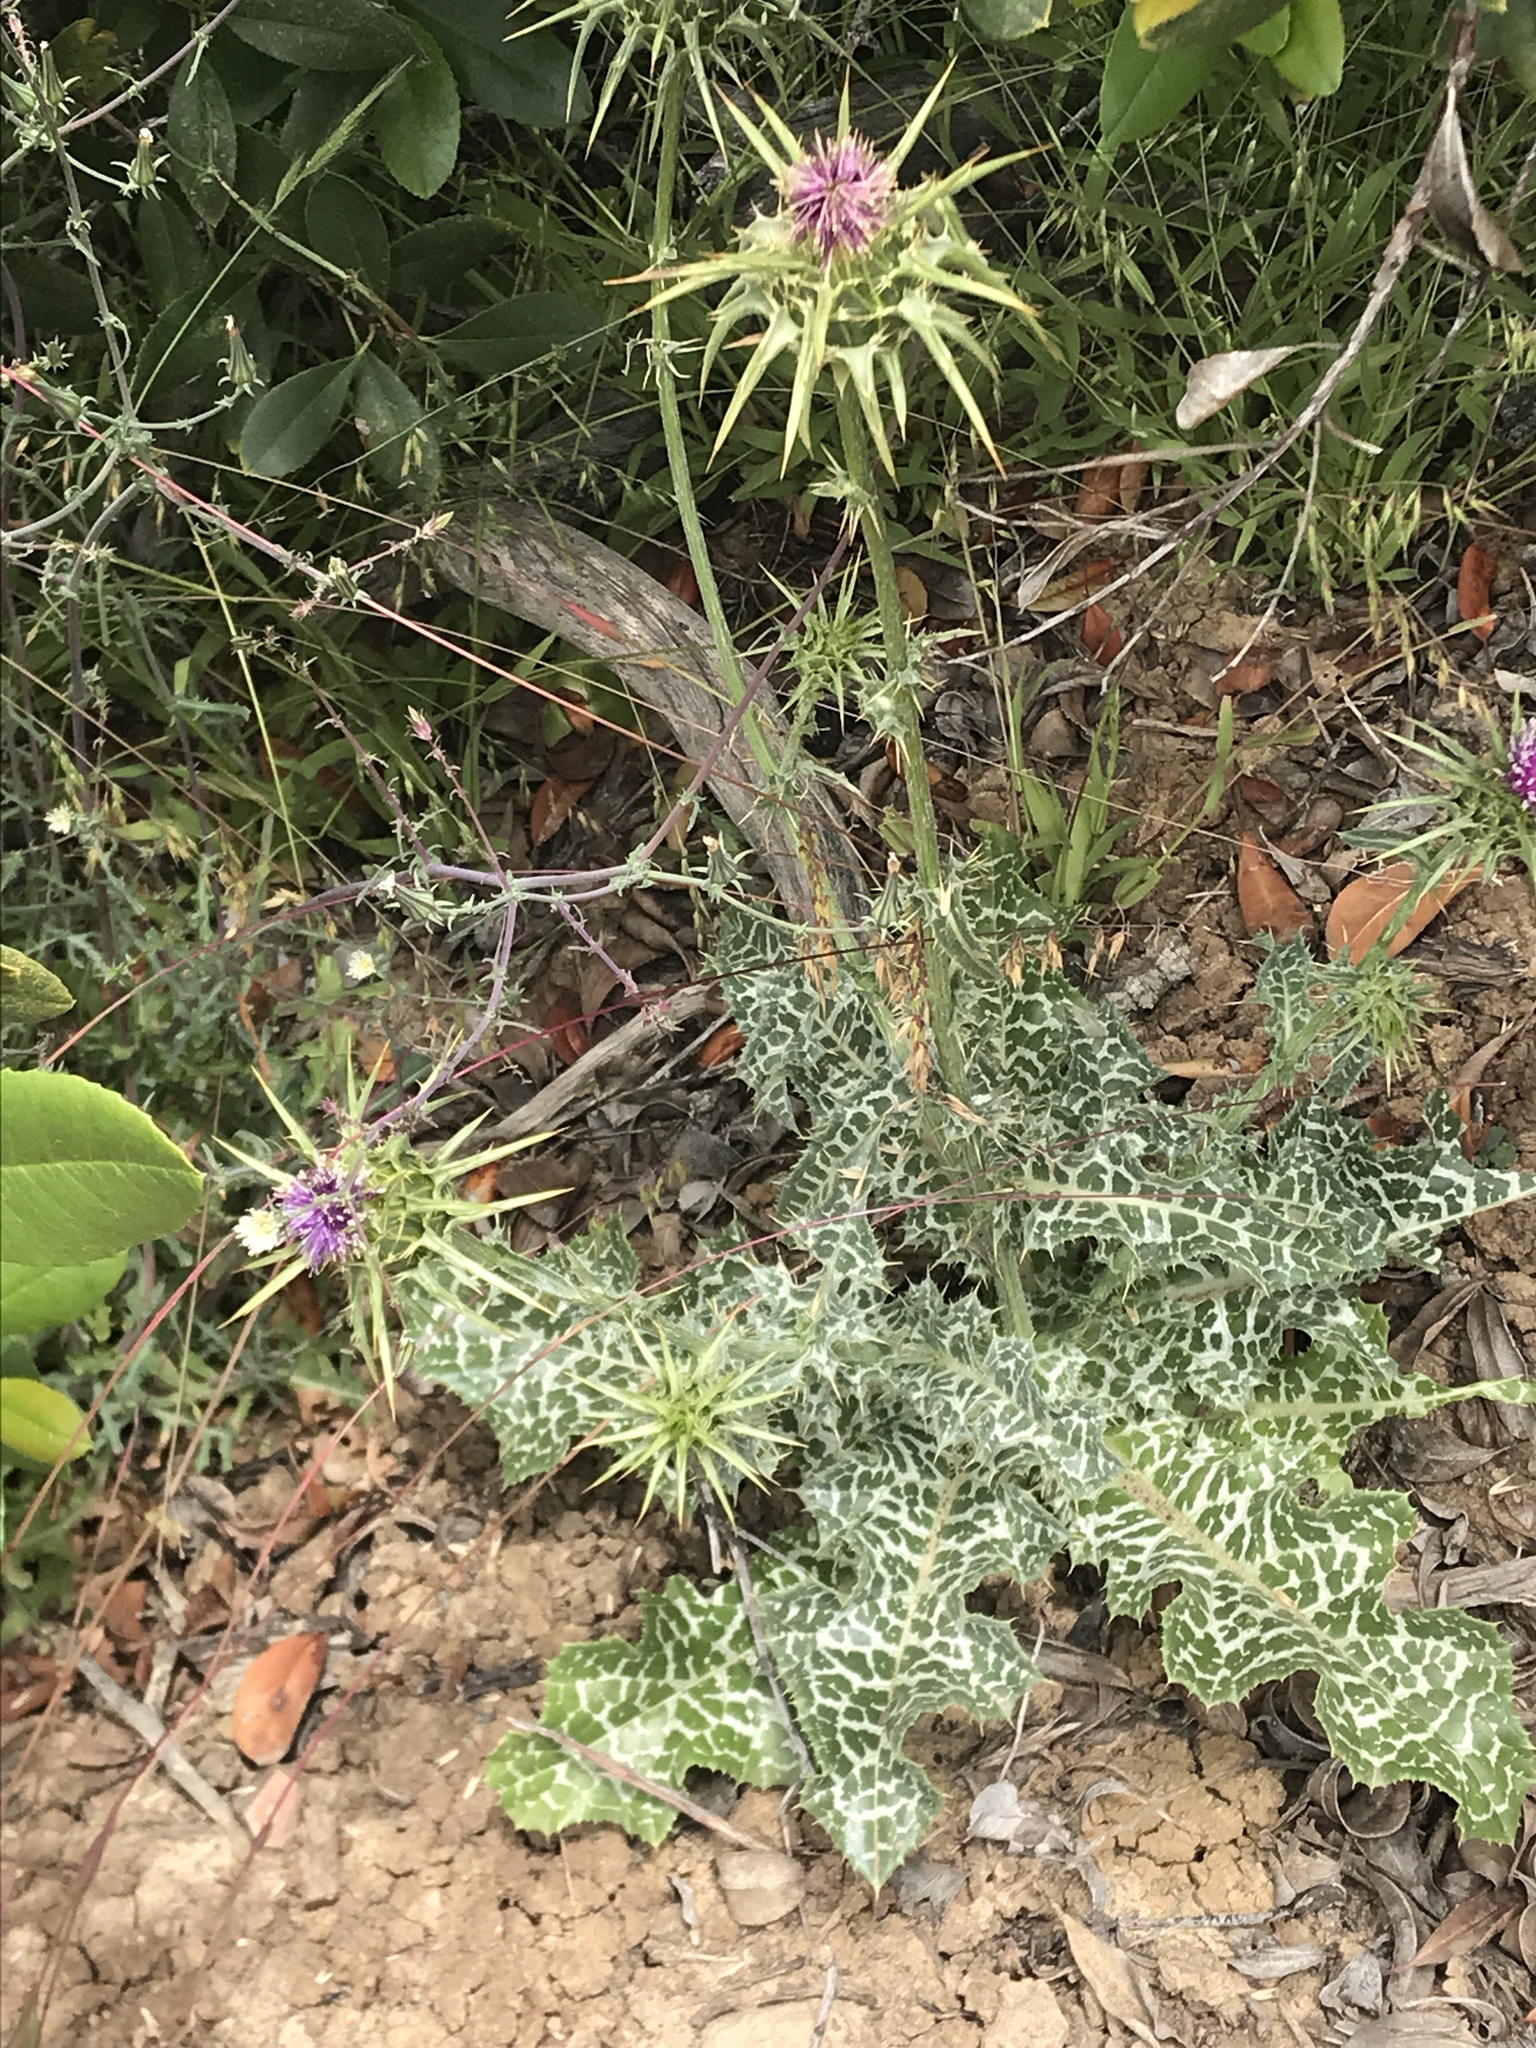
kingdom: Plantae
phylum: Tracheophyta
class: Magnoliopsida
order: Asterales
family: Asteraceae
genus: Silybum
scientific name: Silybum marianum
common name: Milk thistle
